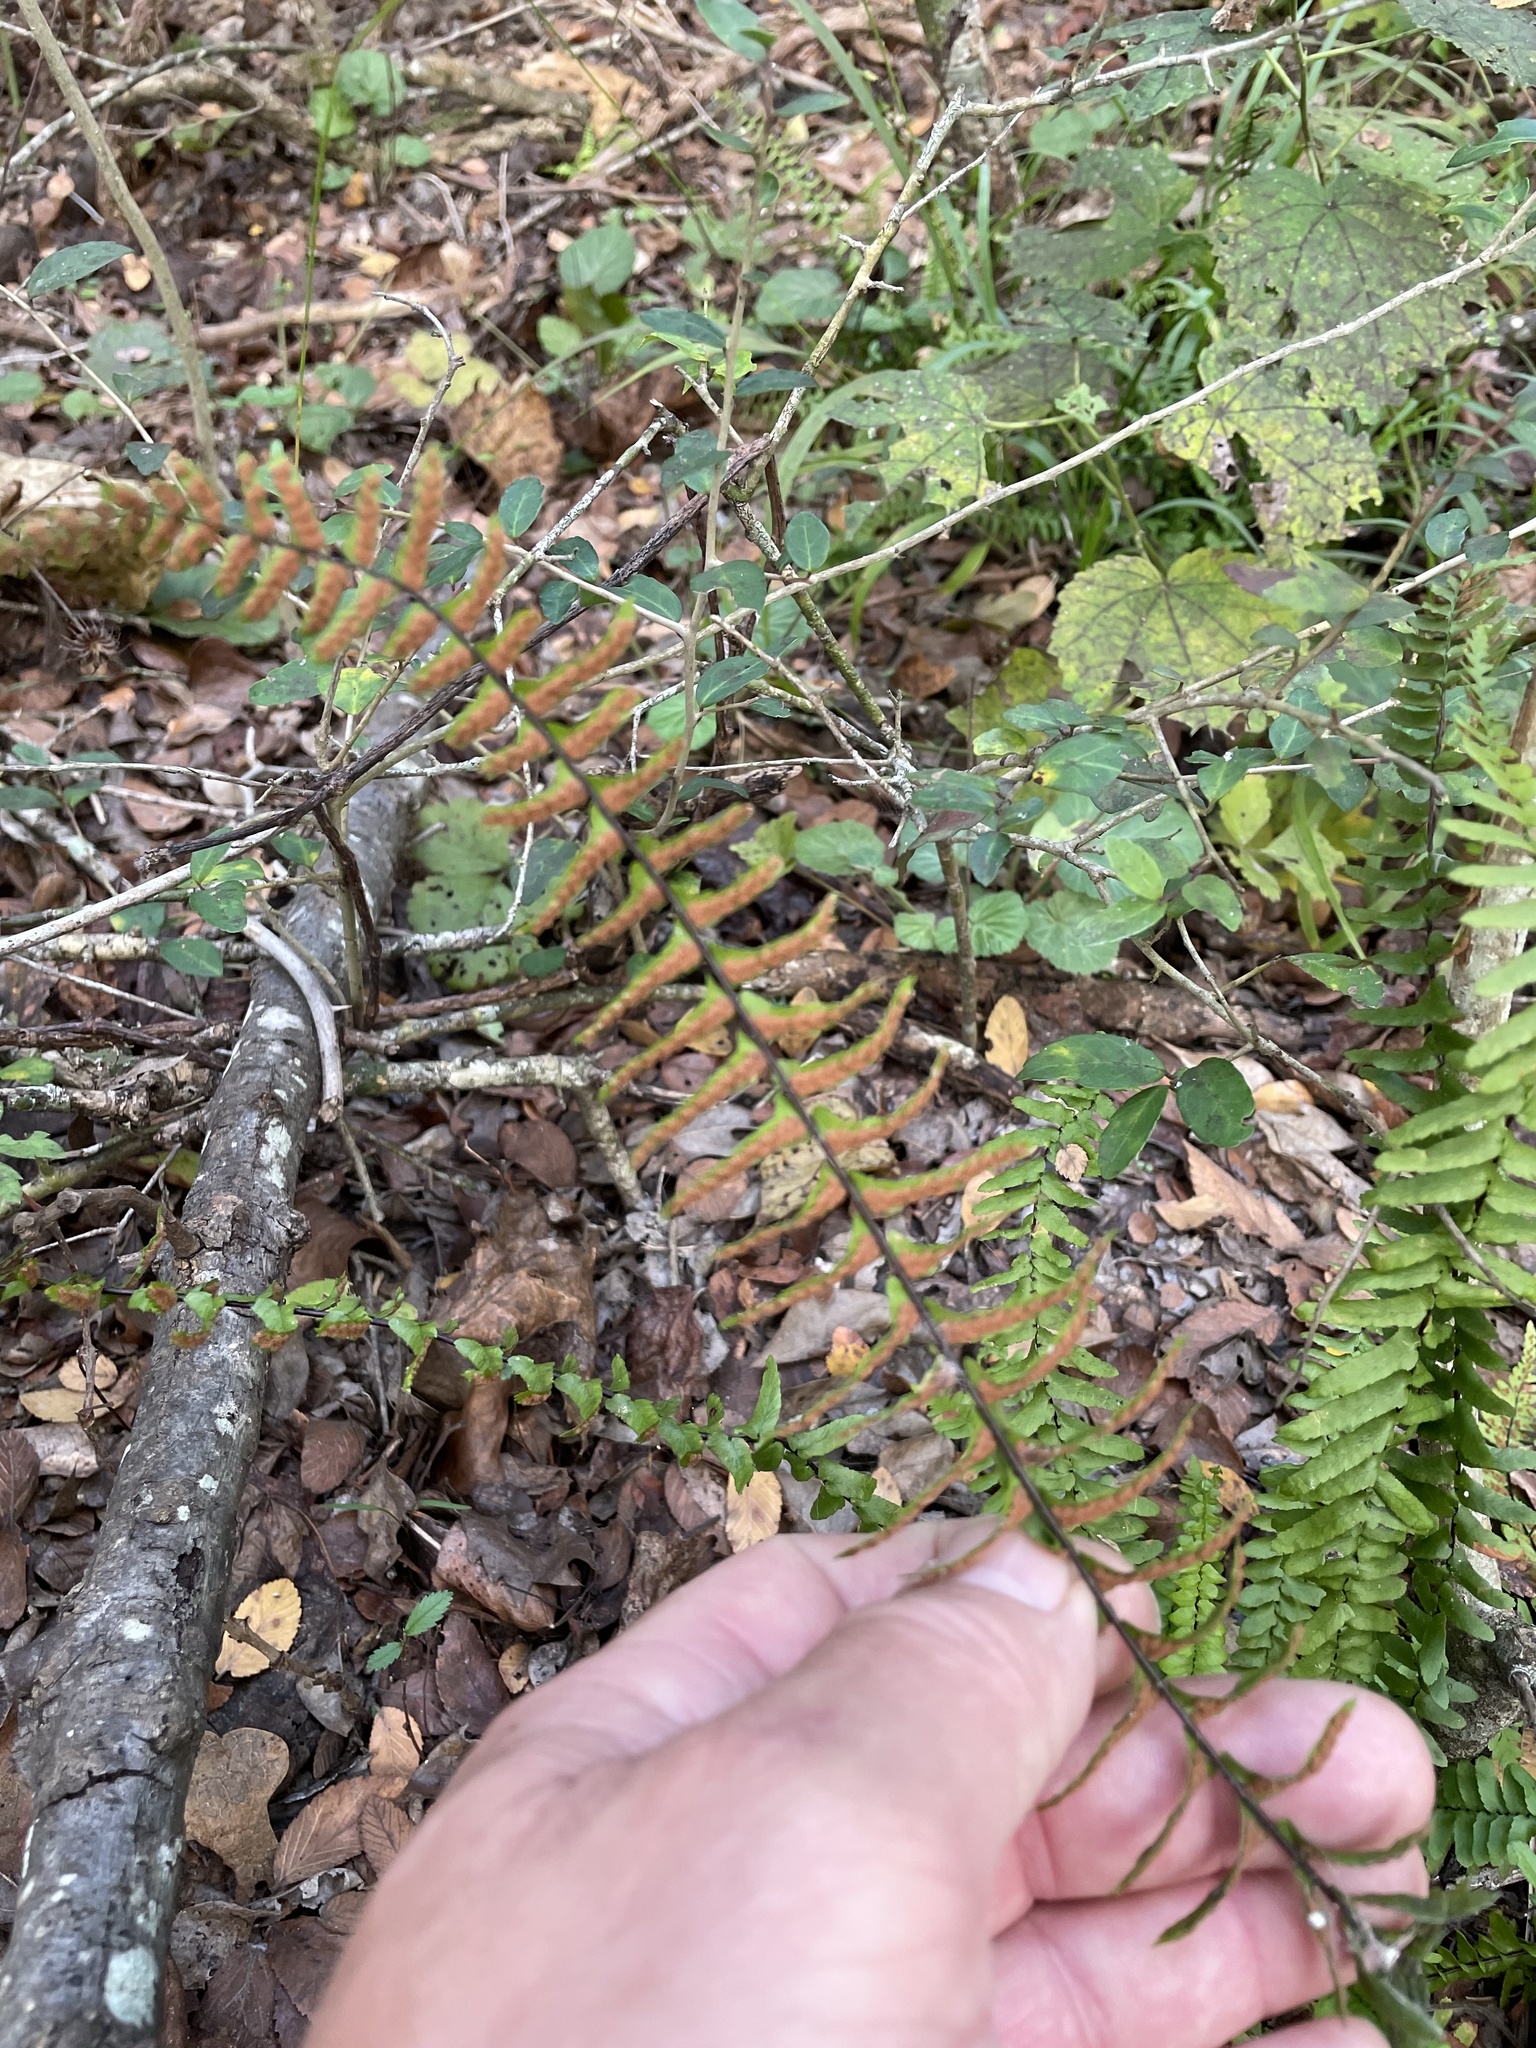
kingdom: Plantae
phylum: Tracheophyta
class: Polypodiopsida
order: Polypodiales
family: Aspleniaceae
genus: Asplenium
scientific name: Asplenium platyneuron
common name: Ebony spleenwort
